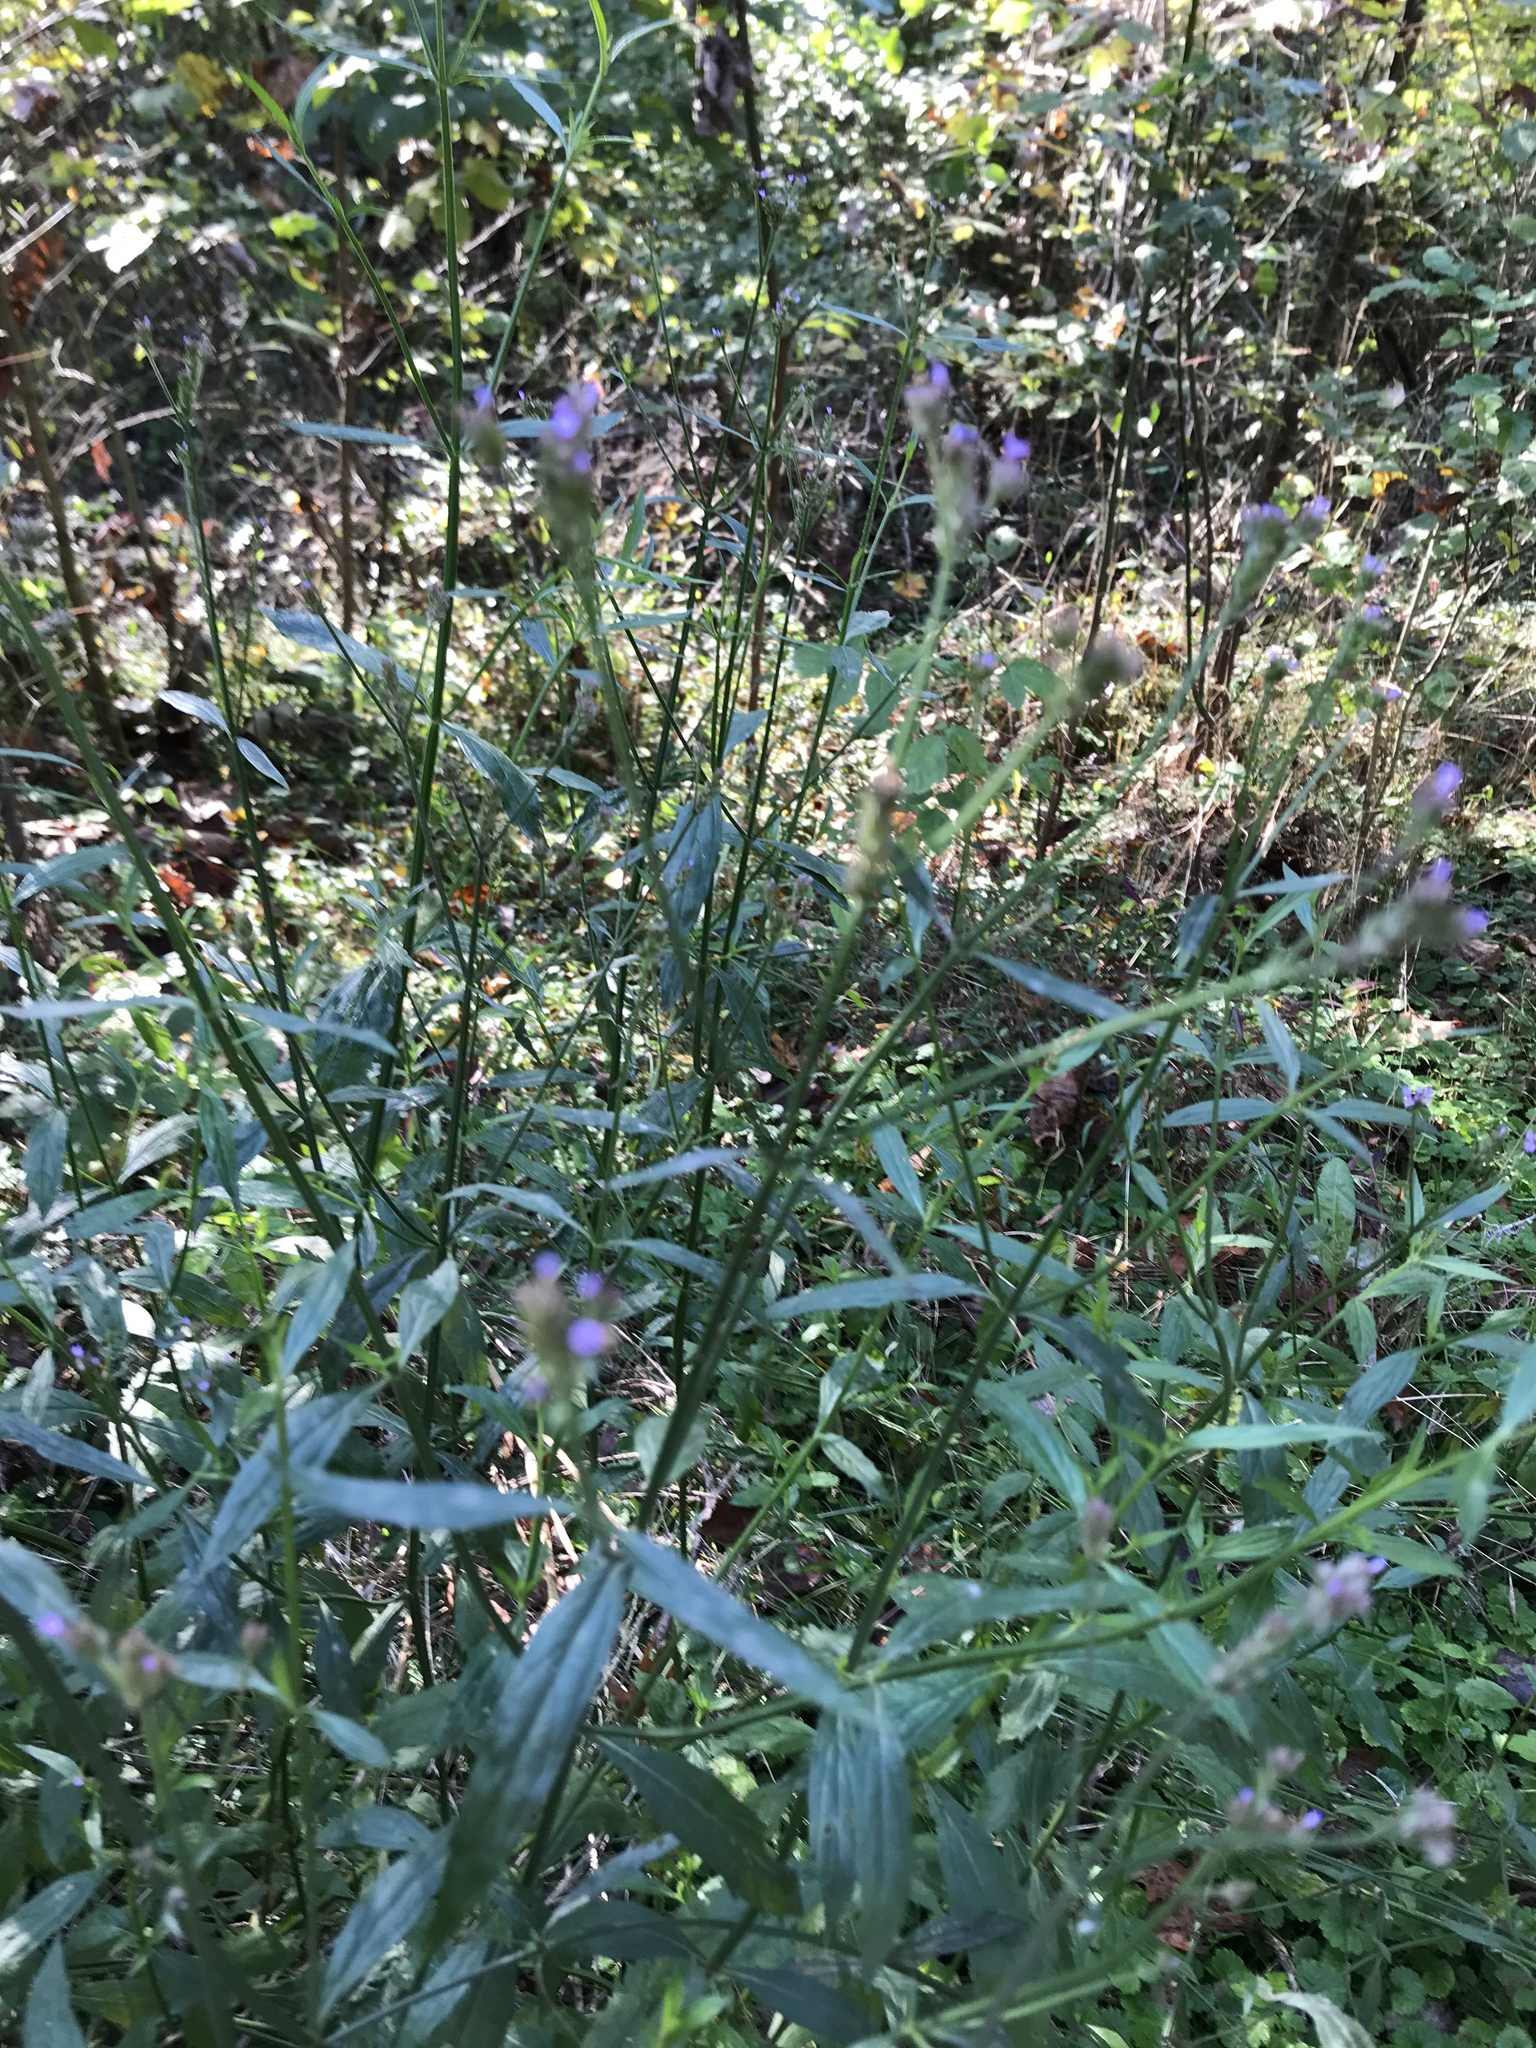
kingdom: Plantae
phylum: Tracheophyta
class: Magnoliopsida
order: Lamiales
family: Verbenaceae
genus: Verbena
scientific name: Verbena brasiliensis
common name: Brazilian vervain
